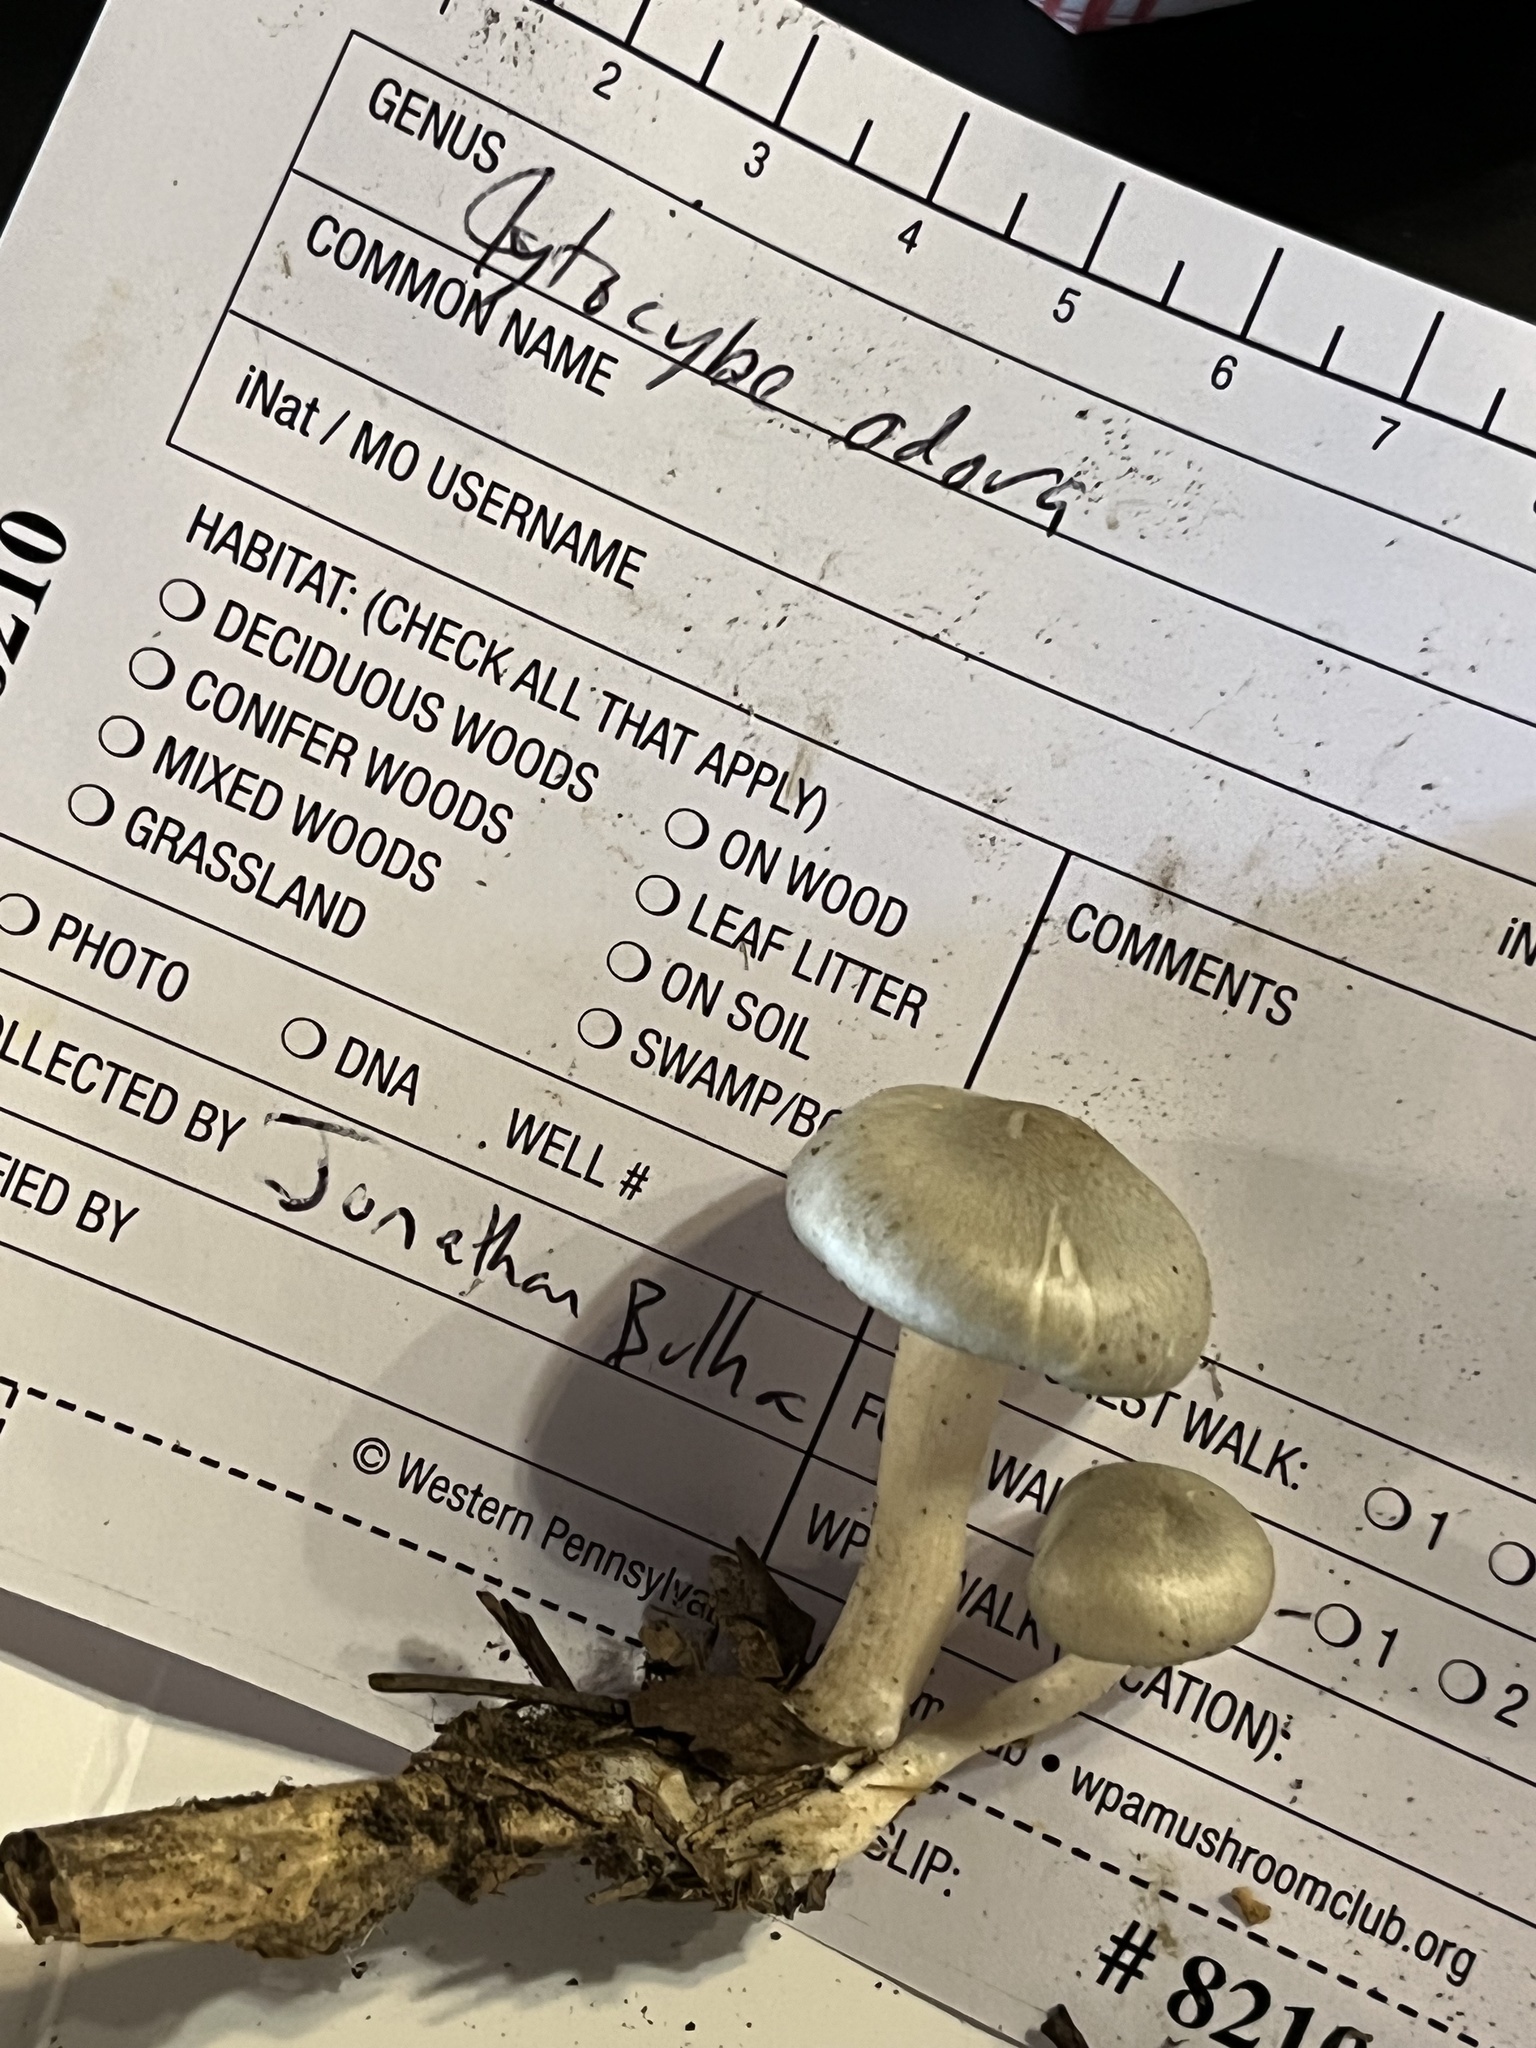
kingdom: Fungi
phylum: Basidiomycota
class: Agaricomycetes
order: Agaricales
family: Tricholomataceae
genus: Collybia
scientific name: Collybia
